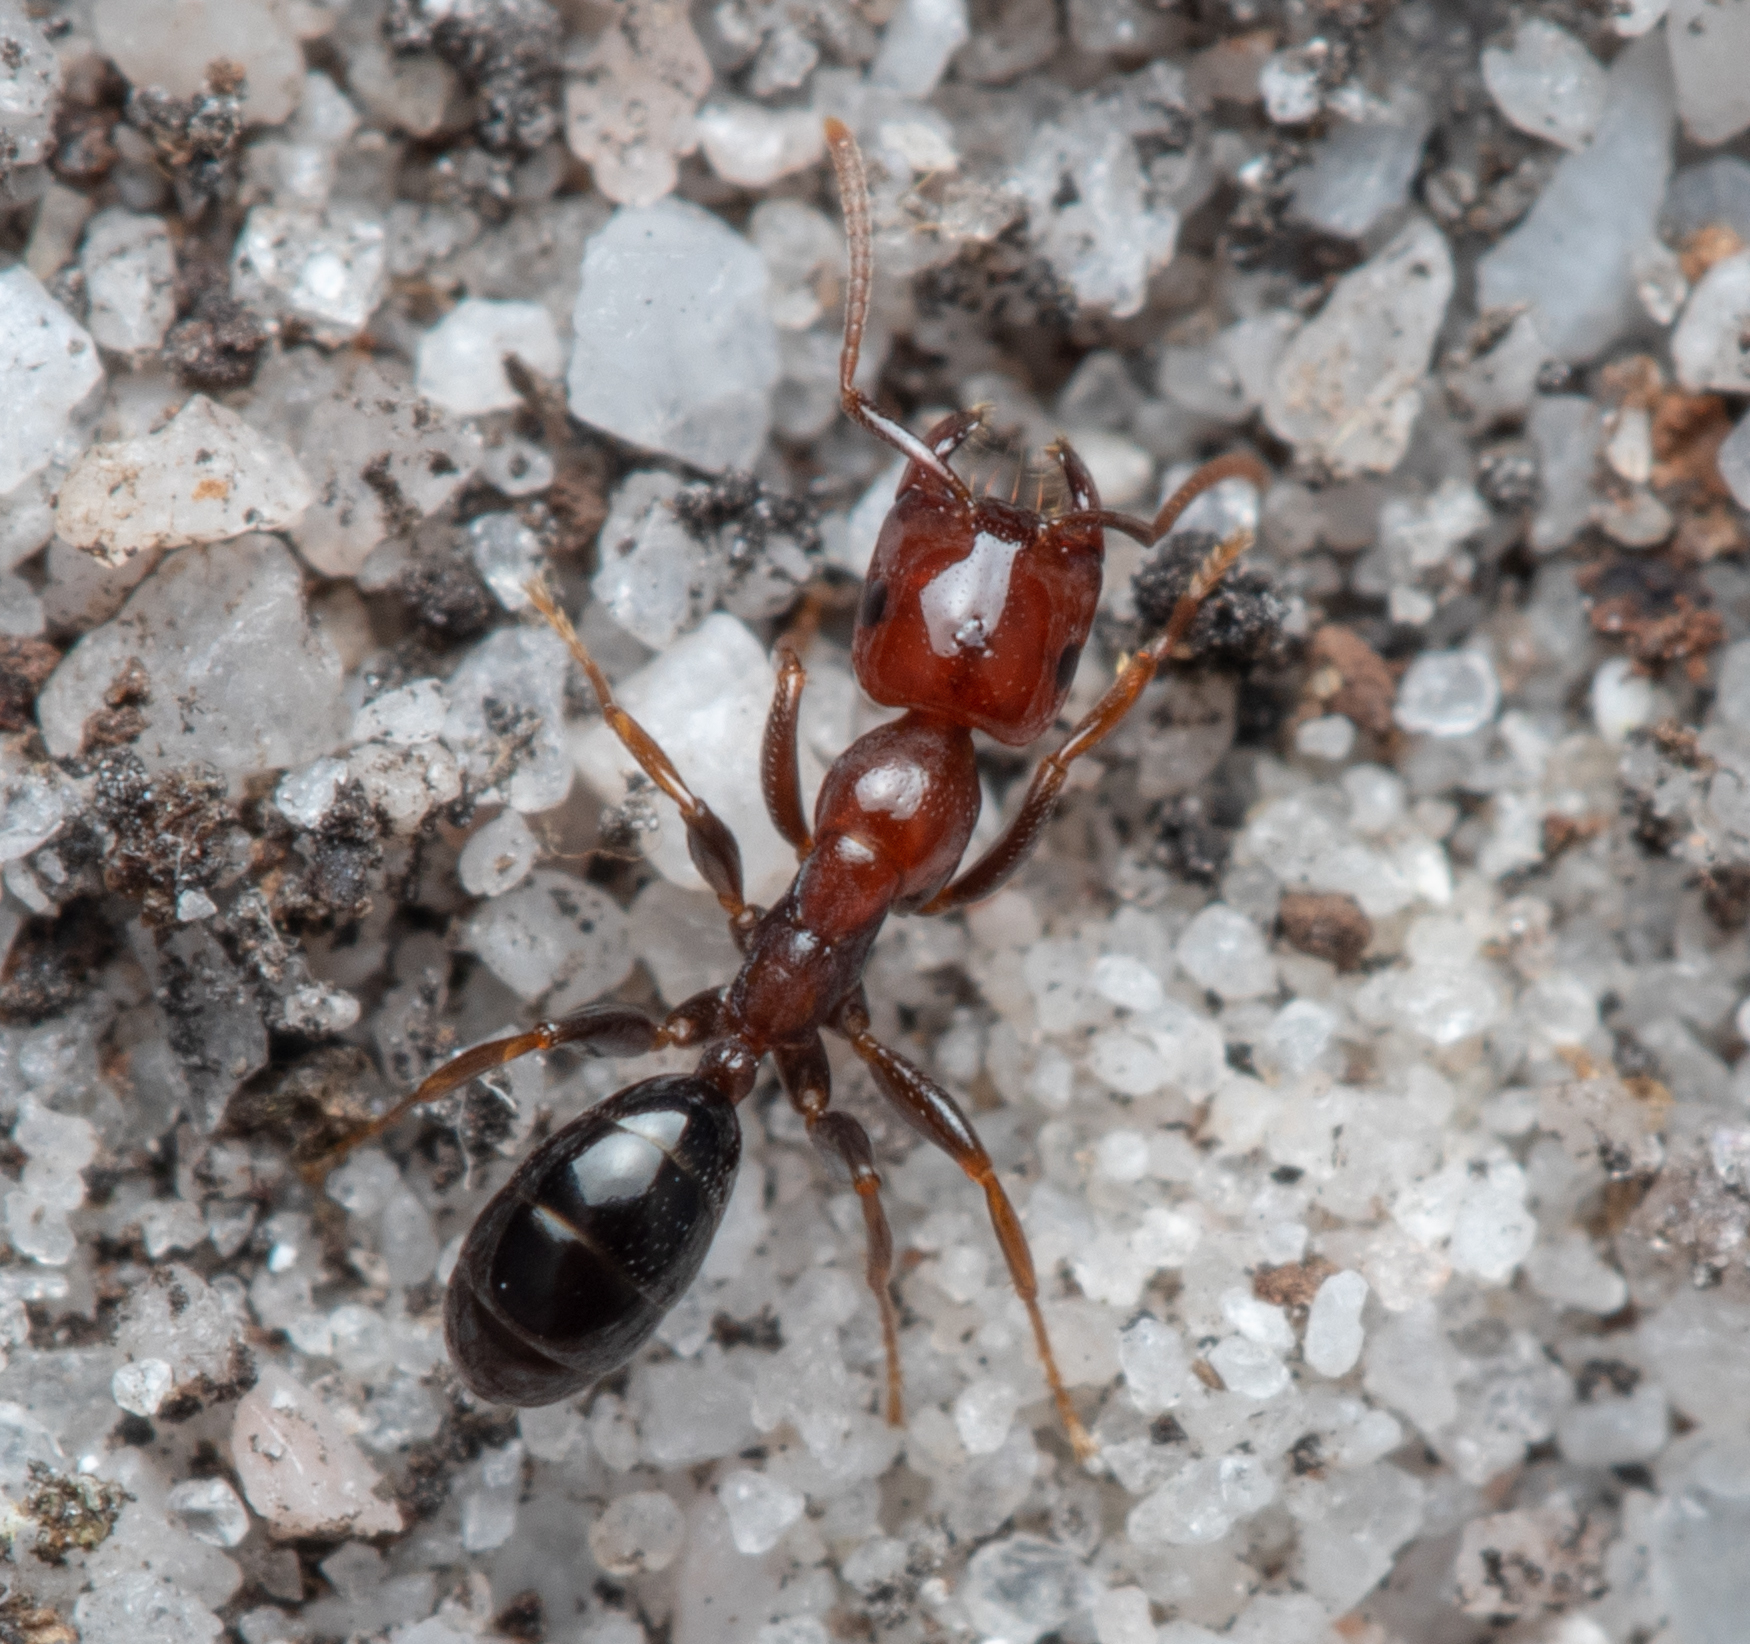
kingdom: Animalia
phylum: Arthropoda
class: Insecta
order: Hymenoptera
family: Formicidae
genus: Melophorus
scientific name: Melophorus pelecygnathus
